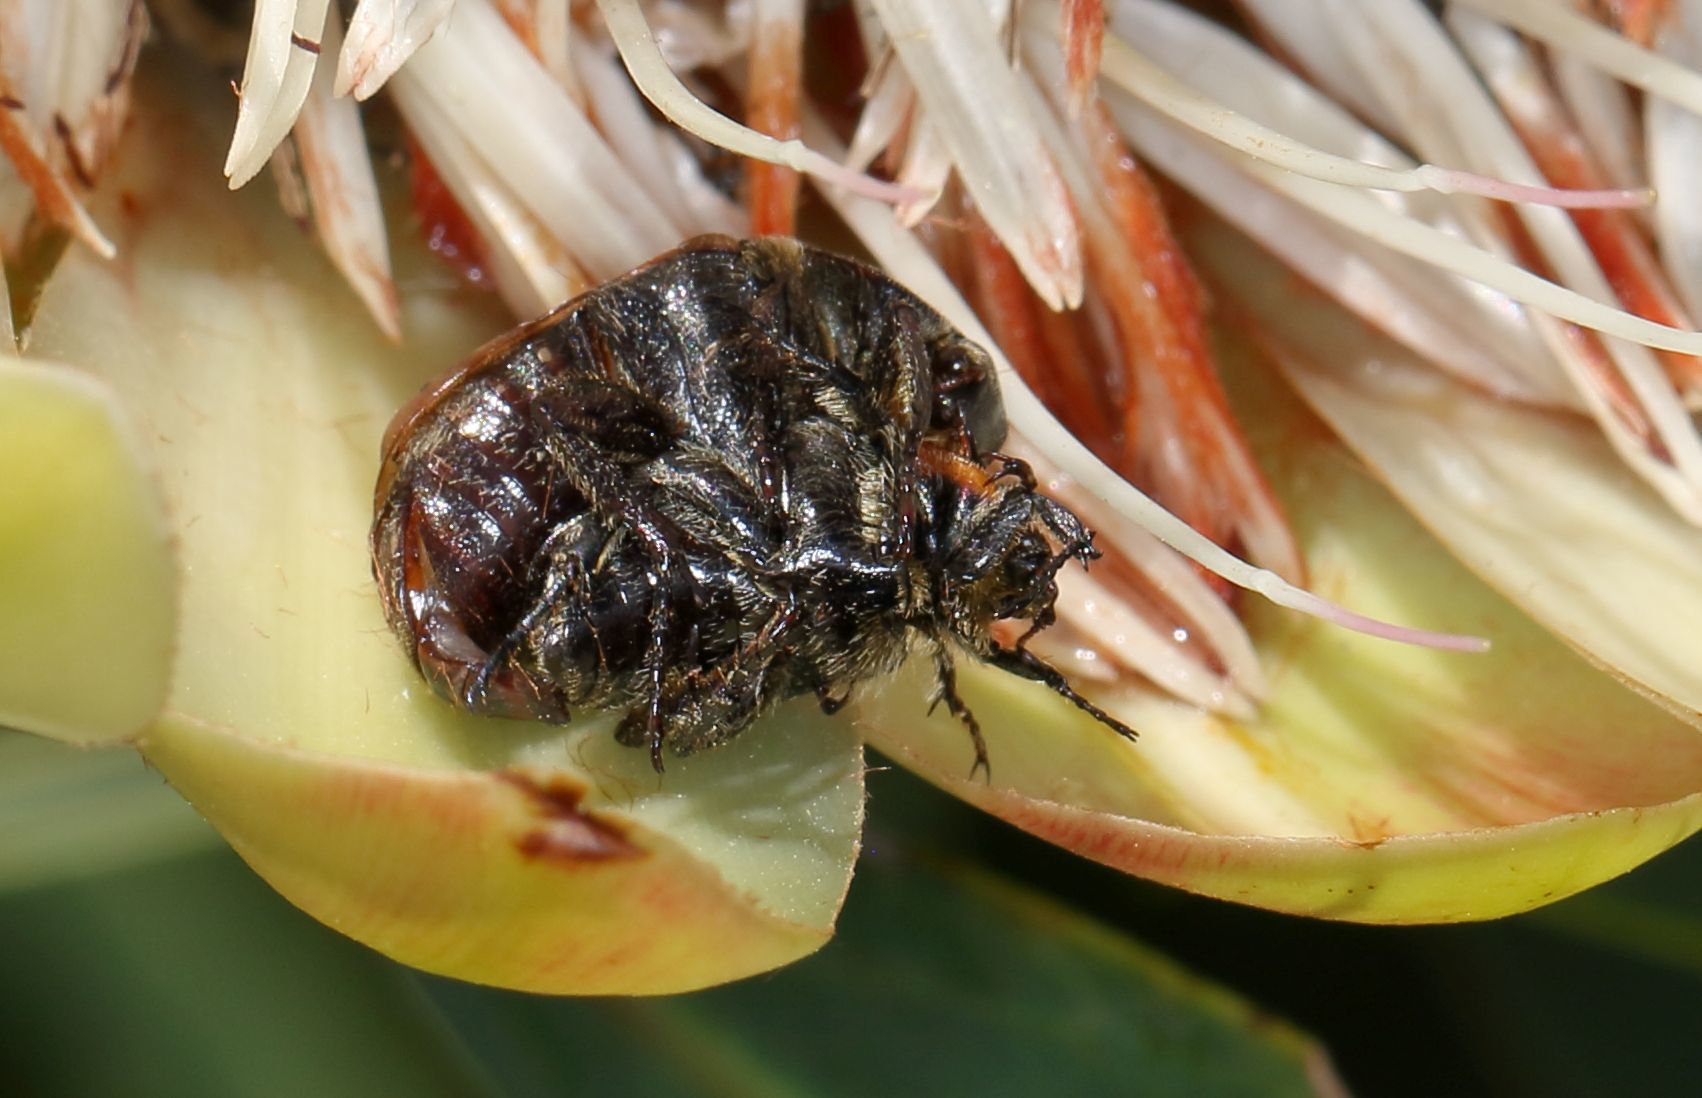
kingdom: Animalia
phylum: Arthropoda
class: Insecta
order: Coleoptera
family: Scarabaeidae
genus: Atrichelaphinis
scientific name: Atrichelaphinis tigrina
